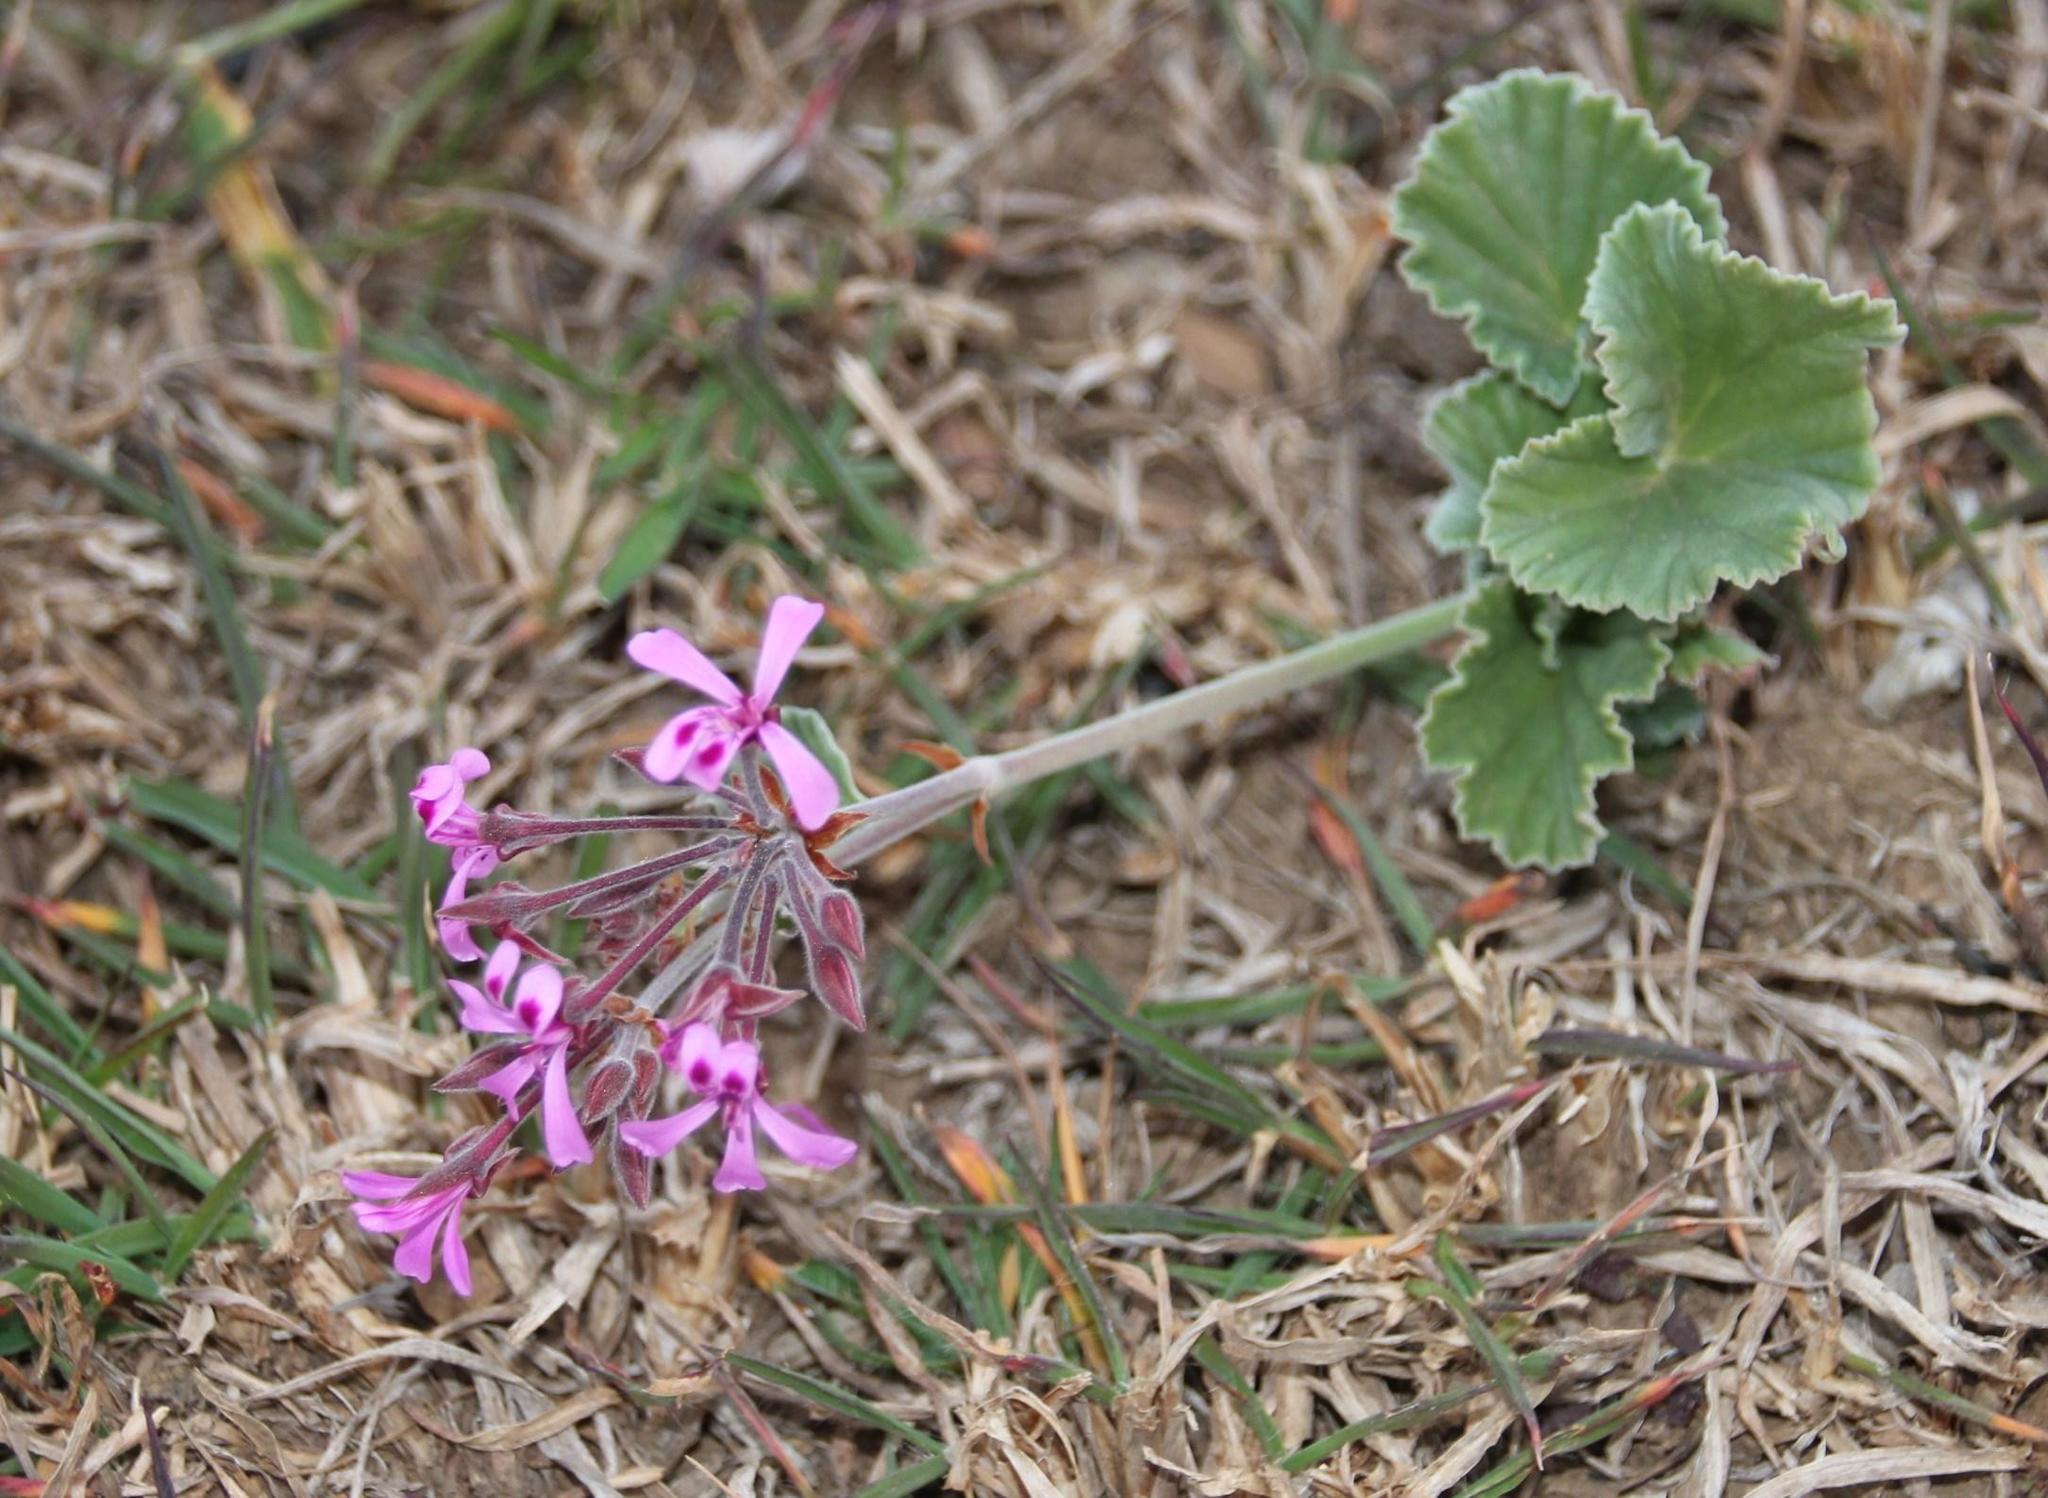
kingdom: Plantae
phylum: Tracheophyta
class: Magnoliopsida
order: Geraniales
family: Geraniaceae
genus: Pelargonium
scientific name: Pelargonium reniforme
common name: Kidney-leaf pelargonium
